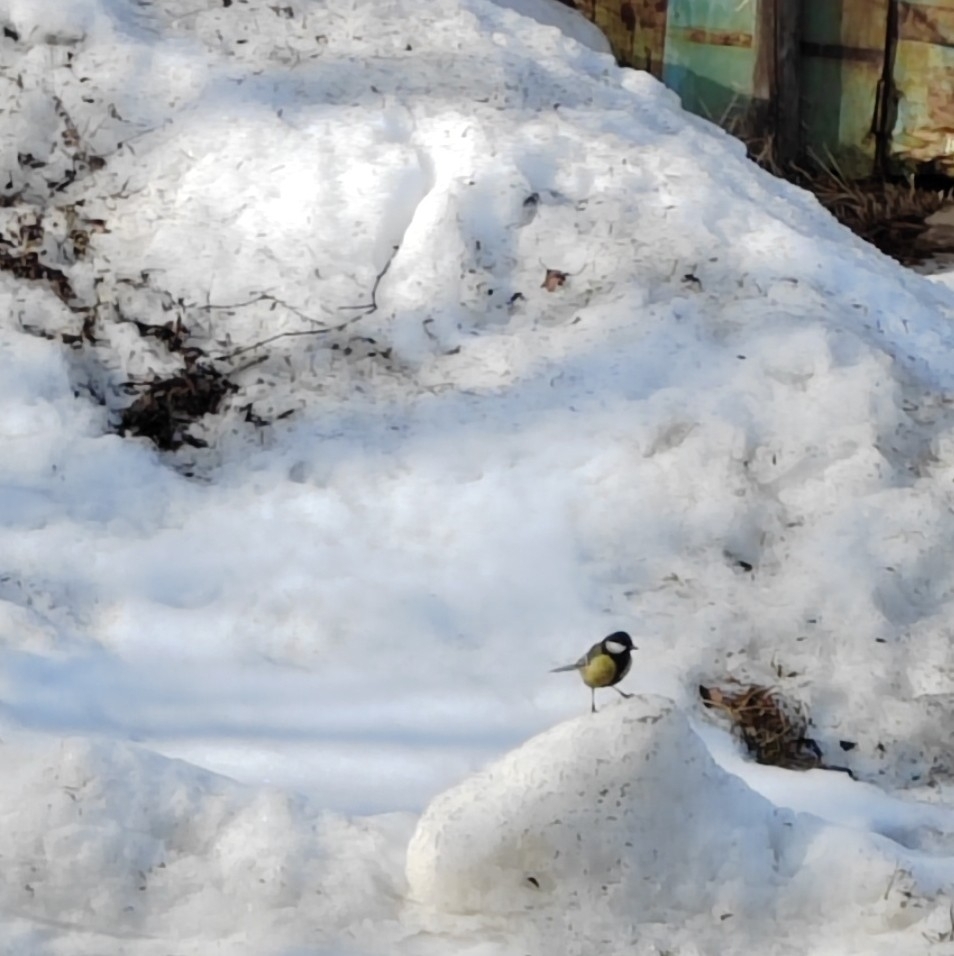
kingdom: Animalia
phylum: Chordata
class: Aves
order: Passeriformes
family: Paridae
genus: Parus
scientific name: Parus major
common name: Great tit
